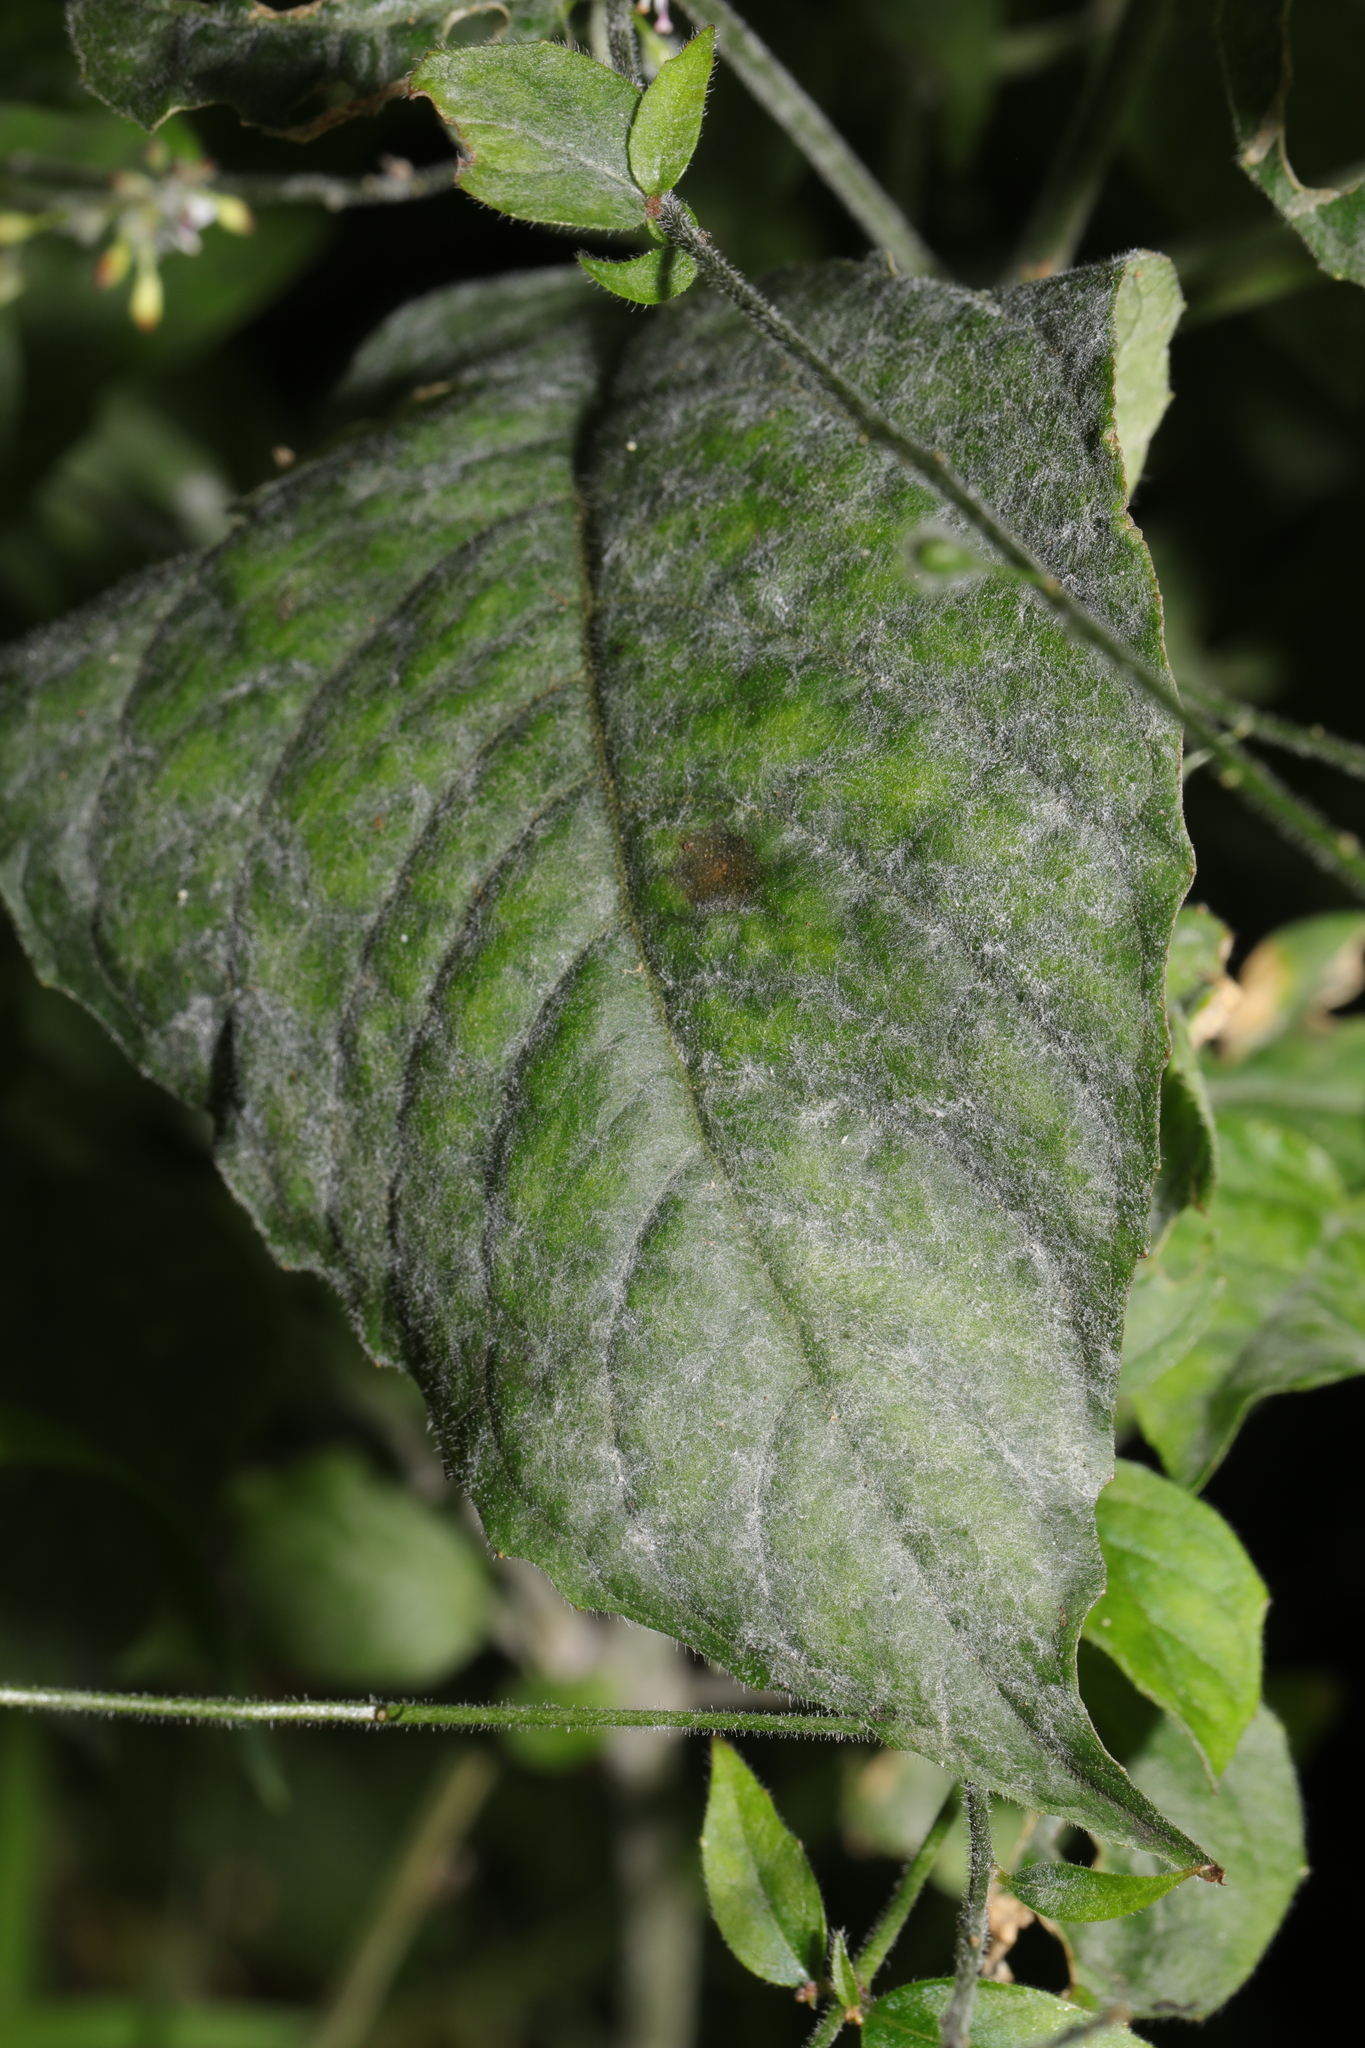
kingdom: Fungi
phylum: Ascomycota
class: Leotiomycetes
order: Helotiales
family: Erysiphaceae
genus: Erysiphe
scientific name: Erysiphe circaeae
